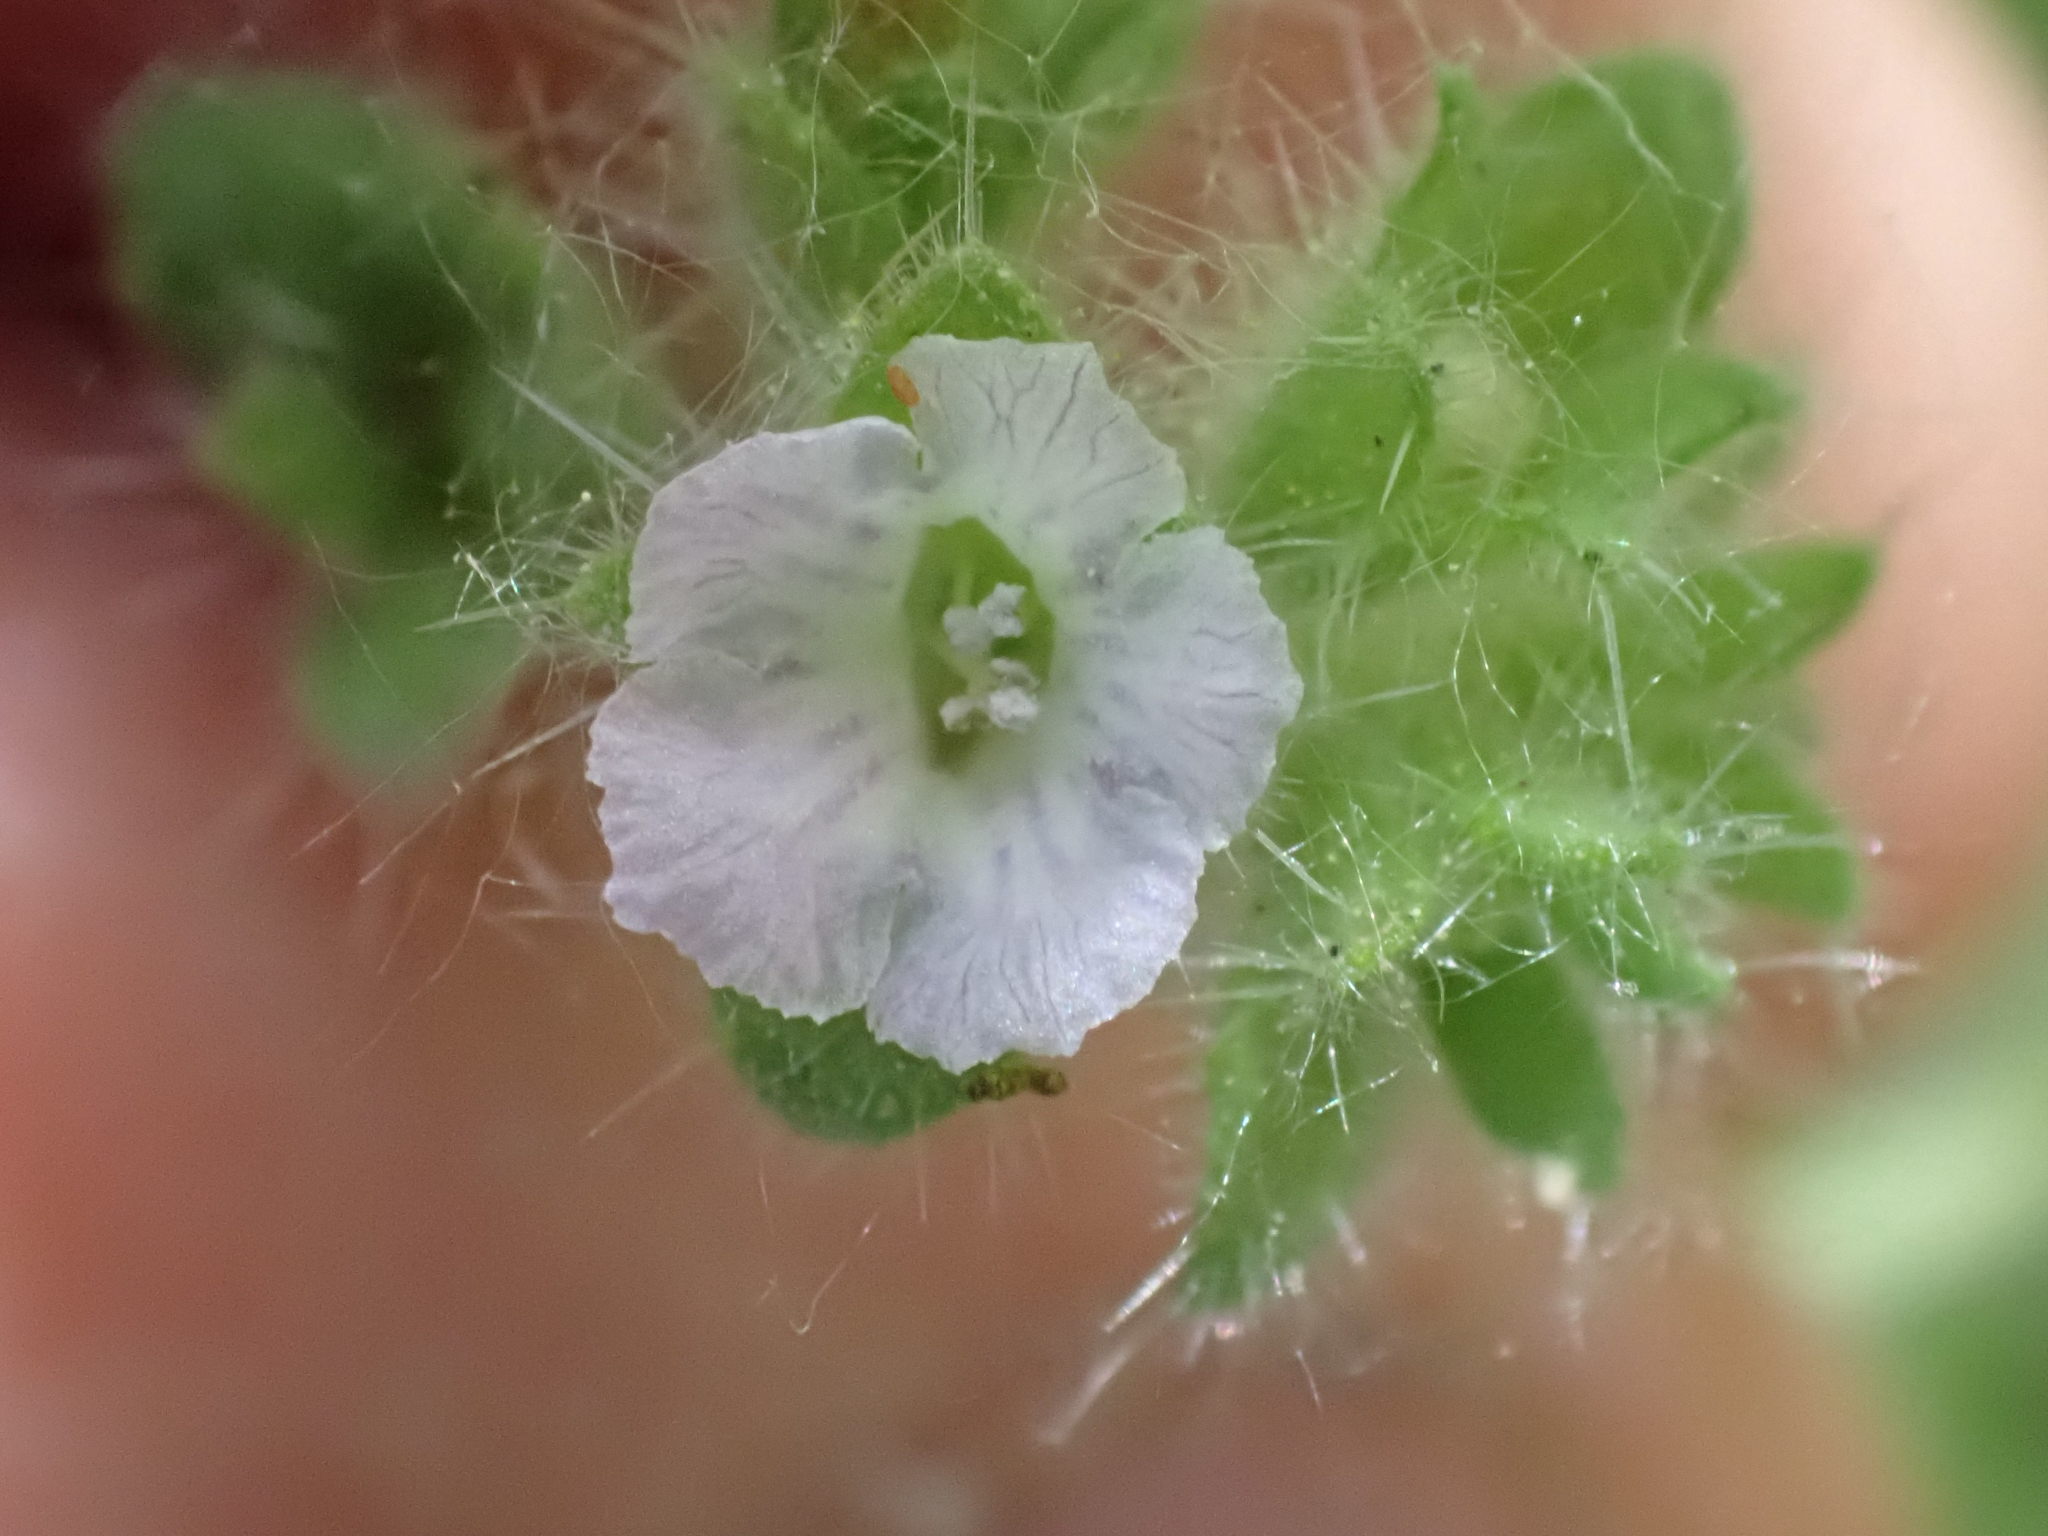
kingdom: Plantae
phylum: Tracheophyta
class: Magnoliopsida
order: Boraginales
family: Hydrophyllaceae
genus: Phacelia
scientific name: Phacelia rattanii
